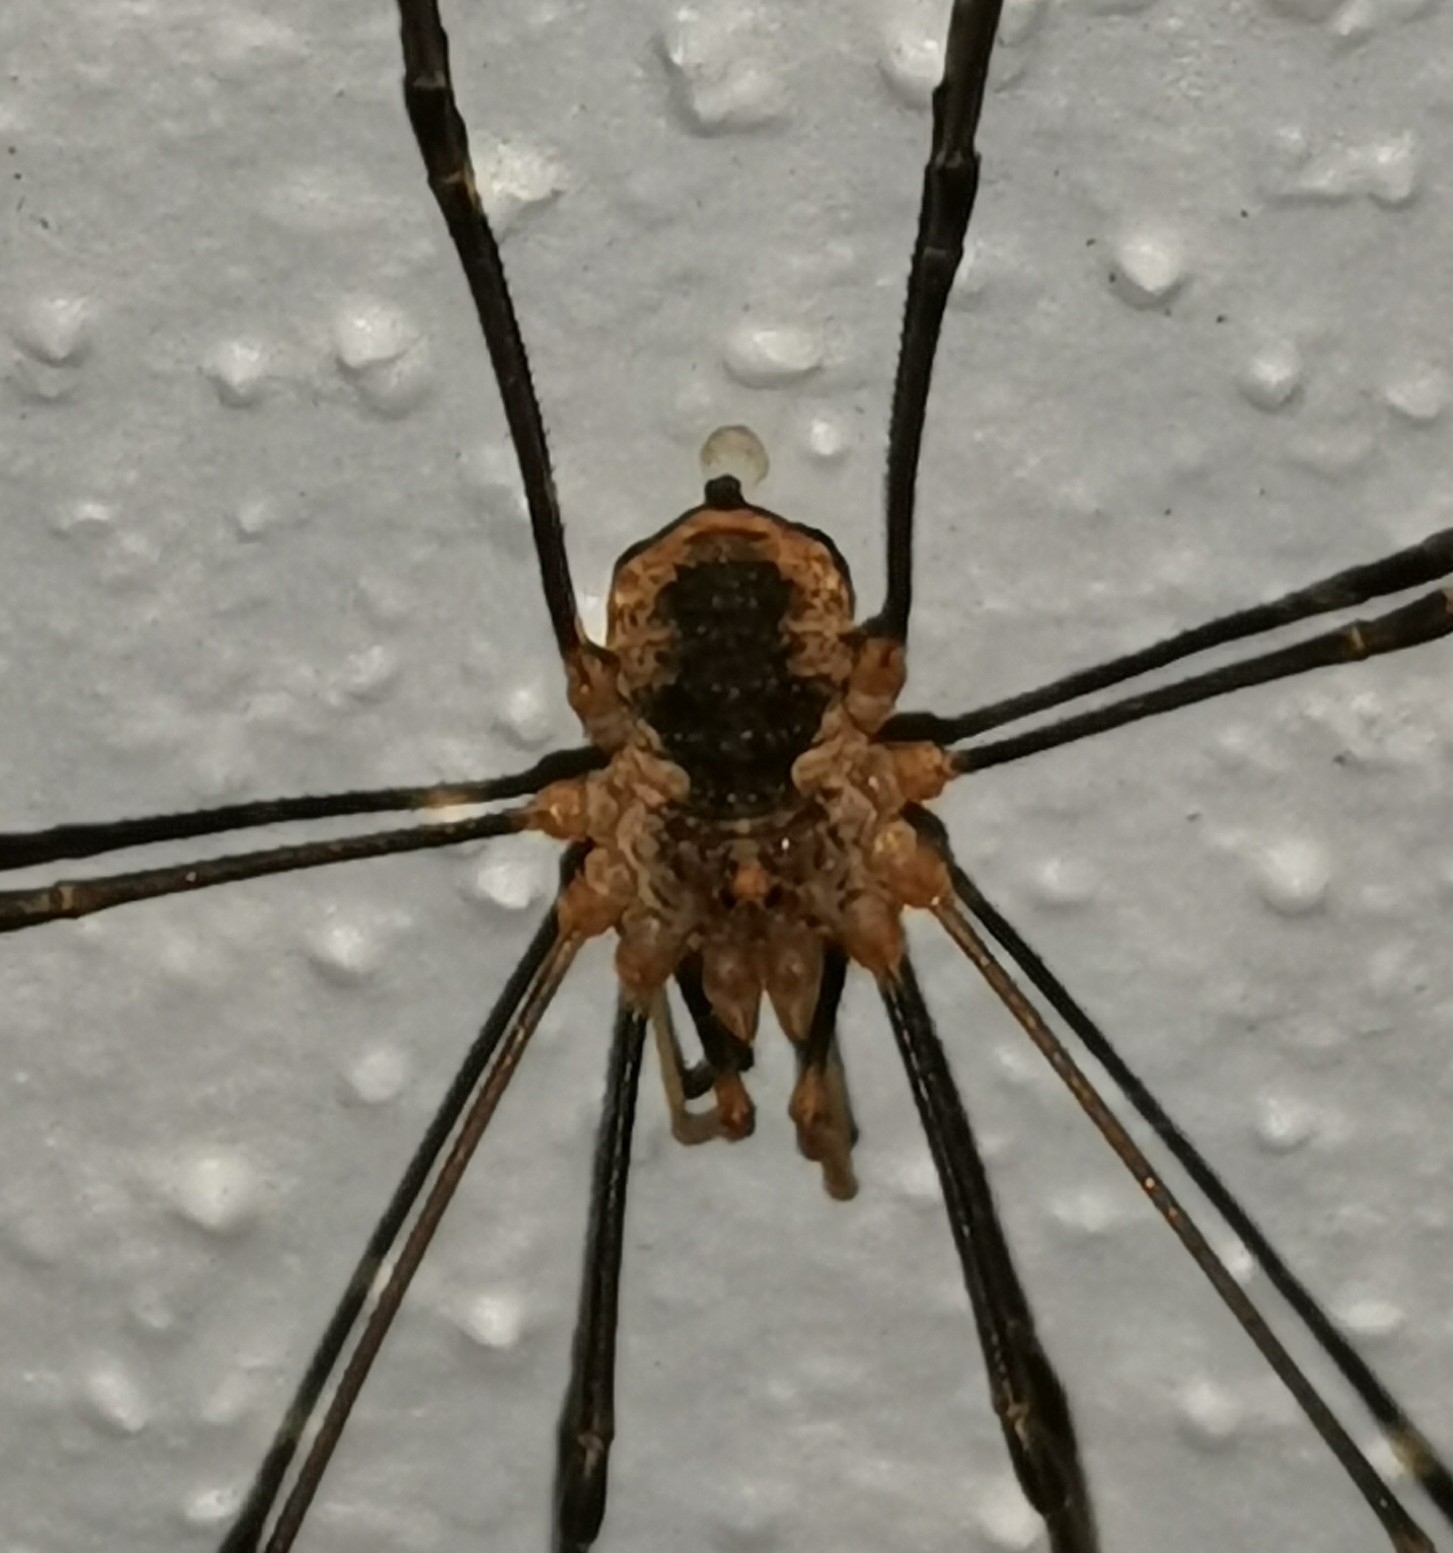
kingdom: Animalia
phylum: Arthropoda
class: Arachnida
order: Opiliones
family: Phalangiidae
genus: Phalangium
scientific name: Phalangium opilio
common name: Daddy longleg
